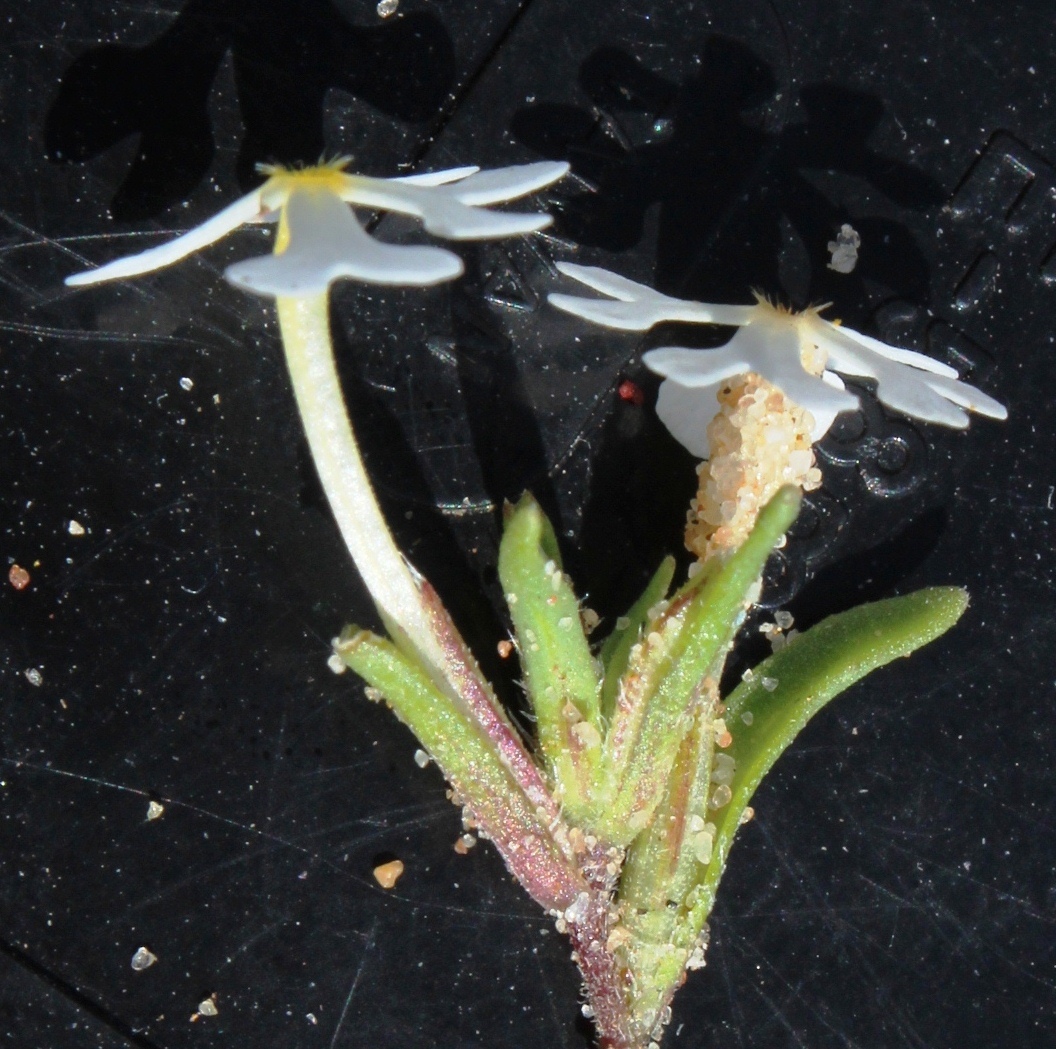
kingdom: Plantae
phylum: Tracheophyta
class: Magnoliopsida
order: Lamiales
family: Scrophulariaceae
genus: Zaluzianskya
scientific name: Zaluzianskya affinis
